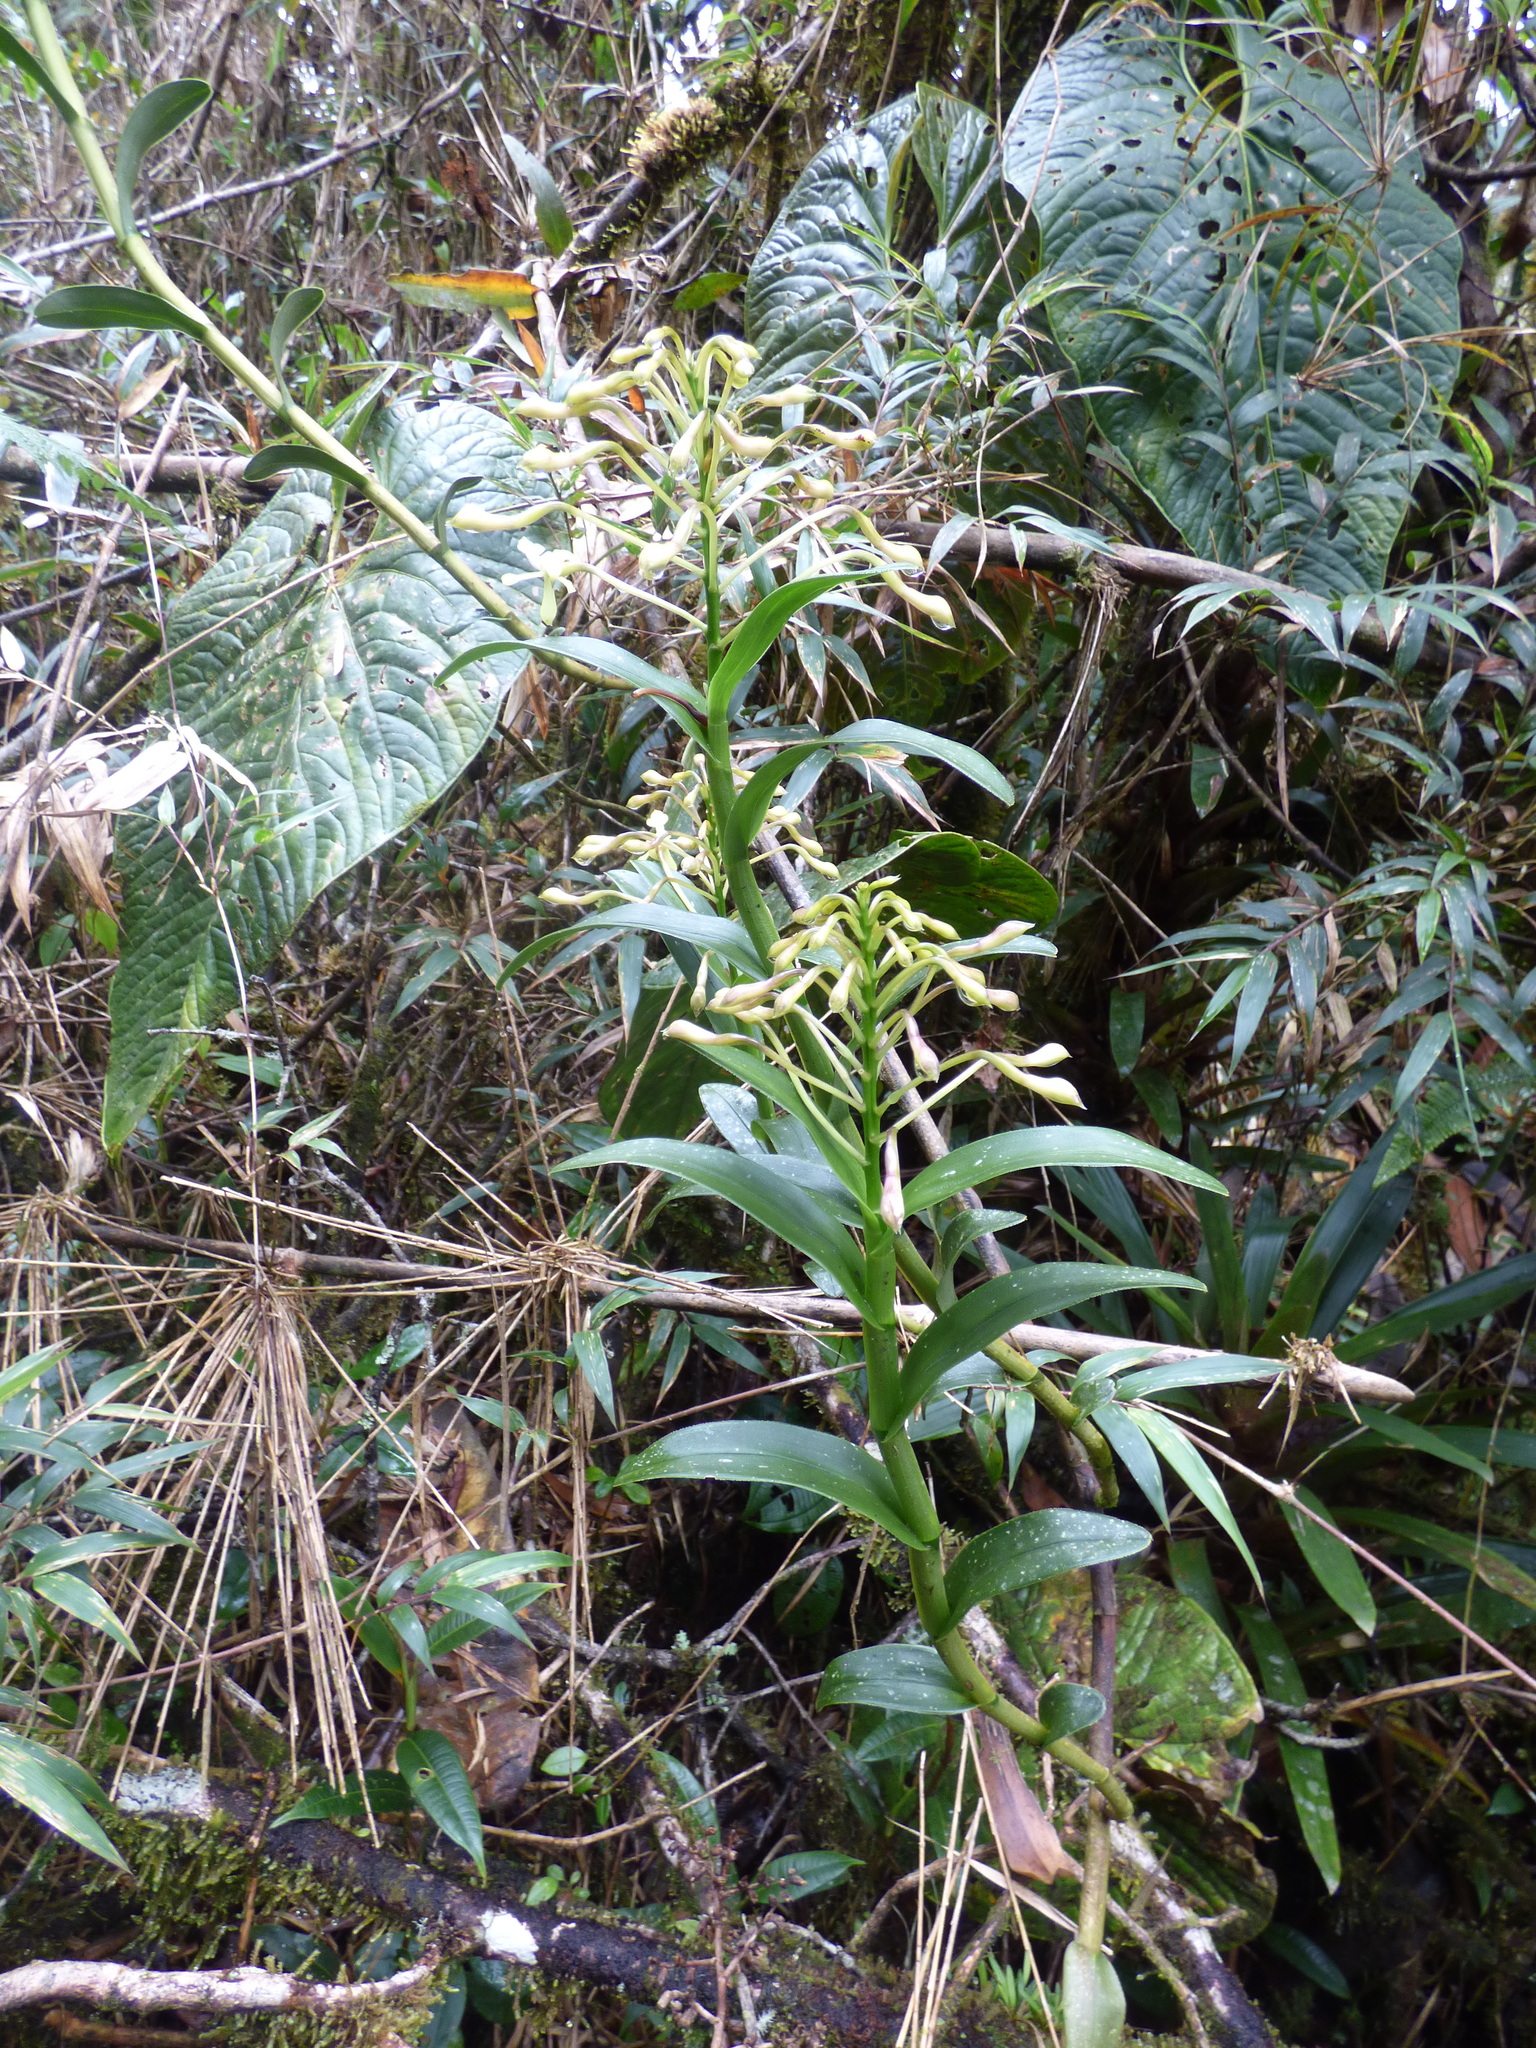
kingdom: Plantae
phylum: Tracheophyta
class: Liliopsida
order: Asparagales
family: Orchidaceae
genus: Epidendrum
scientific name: Epidendrum scytocladium
